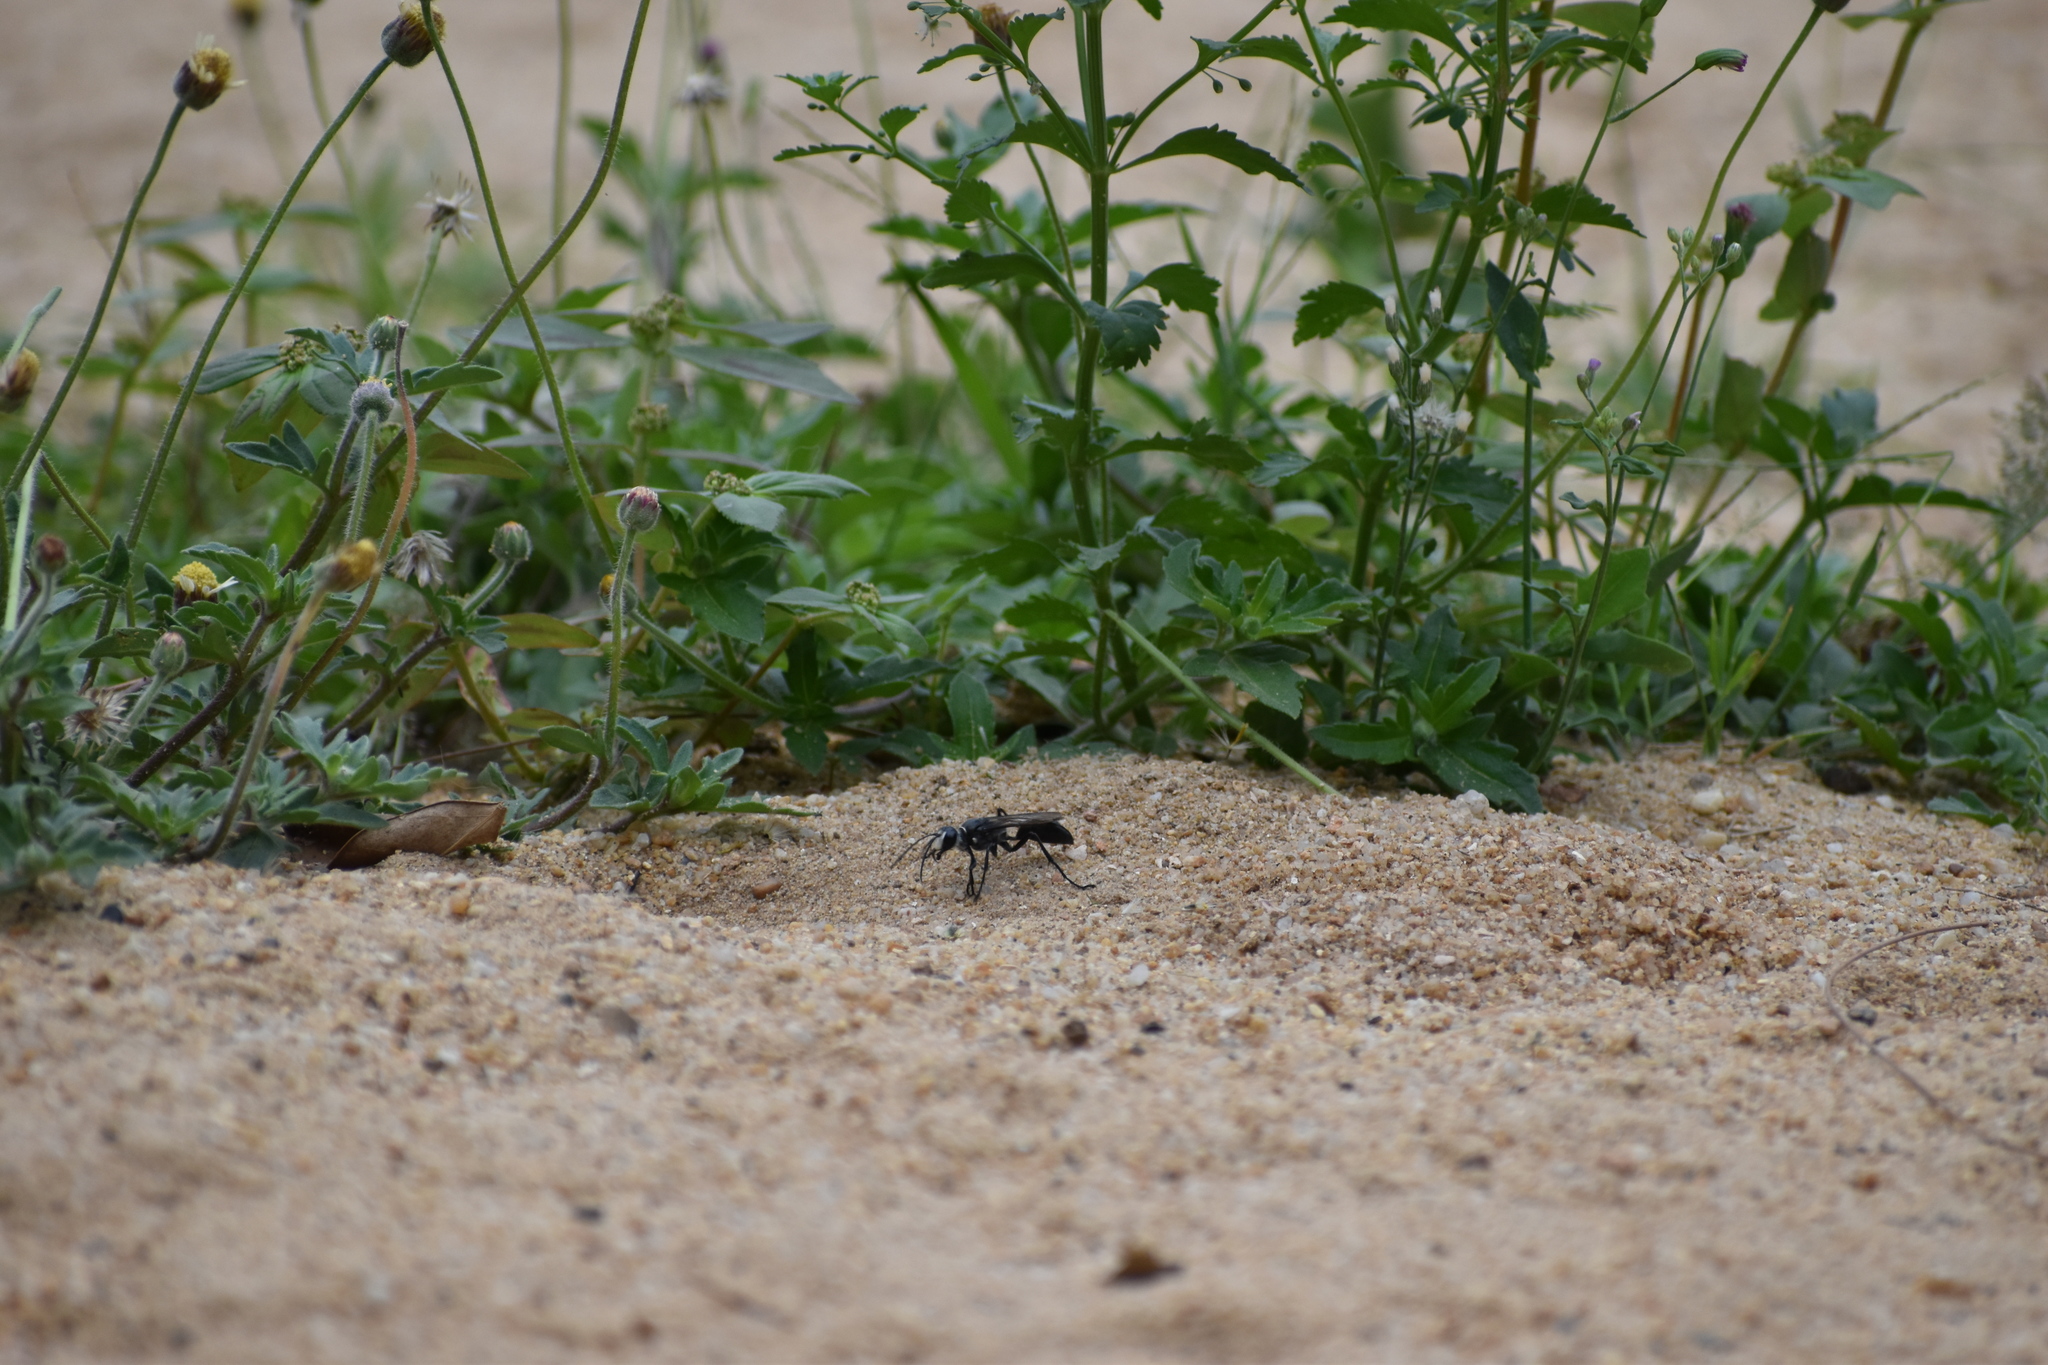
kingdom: Animalia
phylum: Arthropoda
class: Insecta
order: Hymenoptera
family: Sphecidae
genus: Sphex
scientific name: Sphex argentatus
